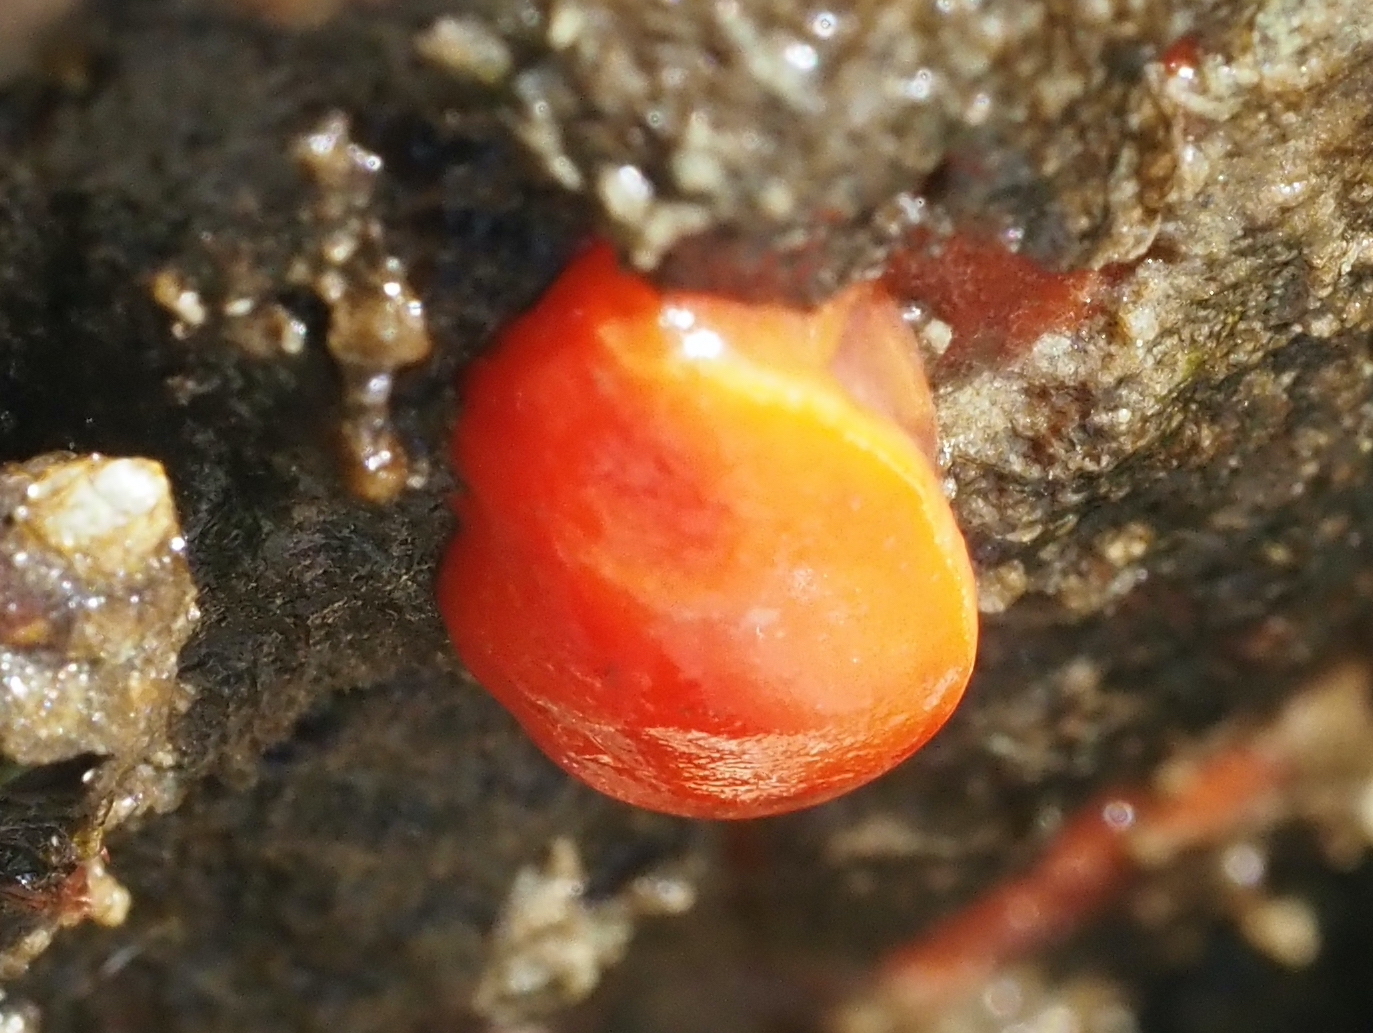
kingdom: Animalia
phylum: Mollusca
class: Gastropoda
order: Nudibranchia
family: Discodorididae
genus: Rostanga
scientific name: Rostanga pulchra
